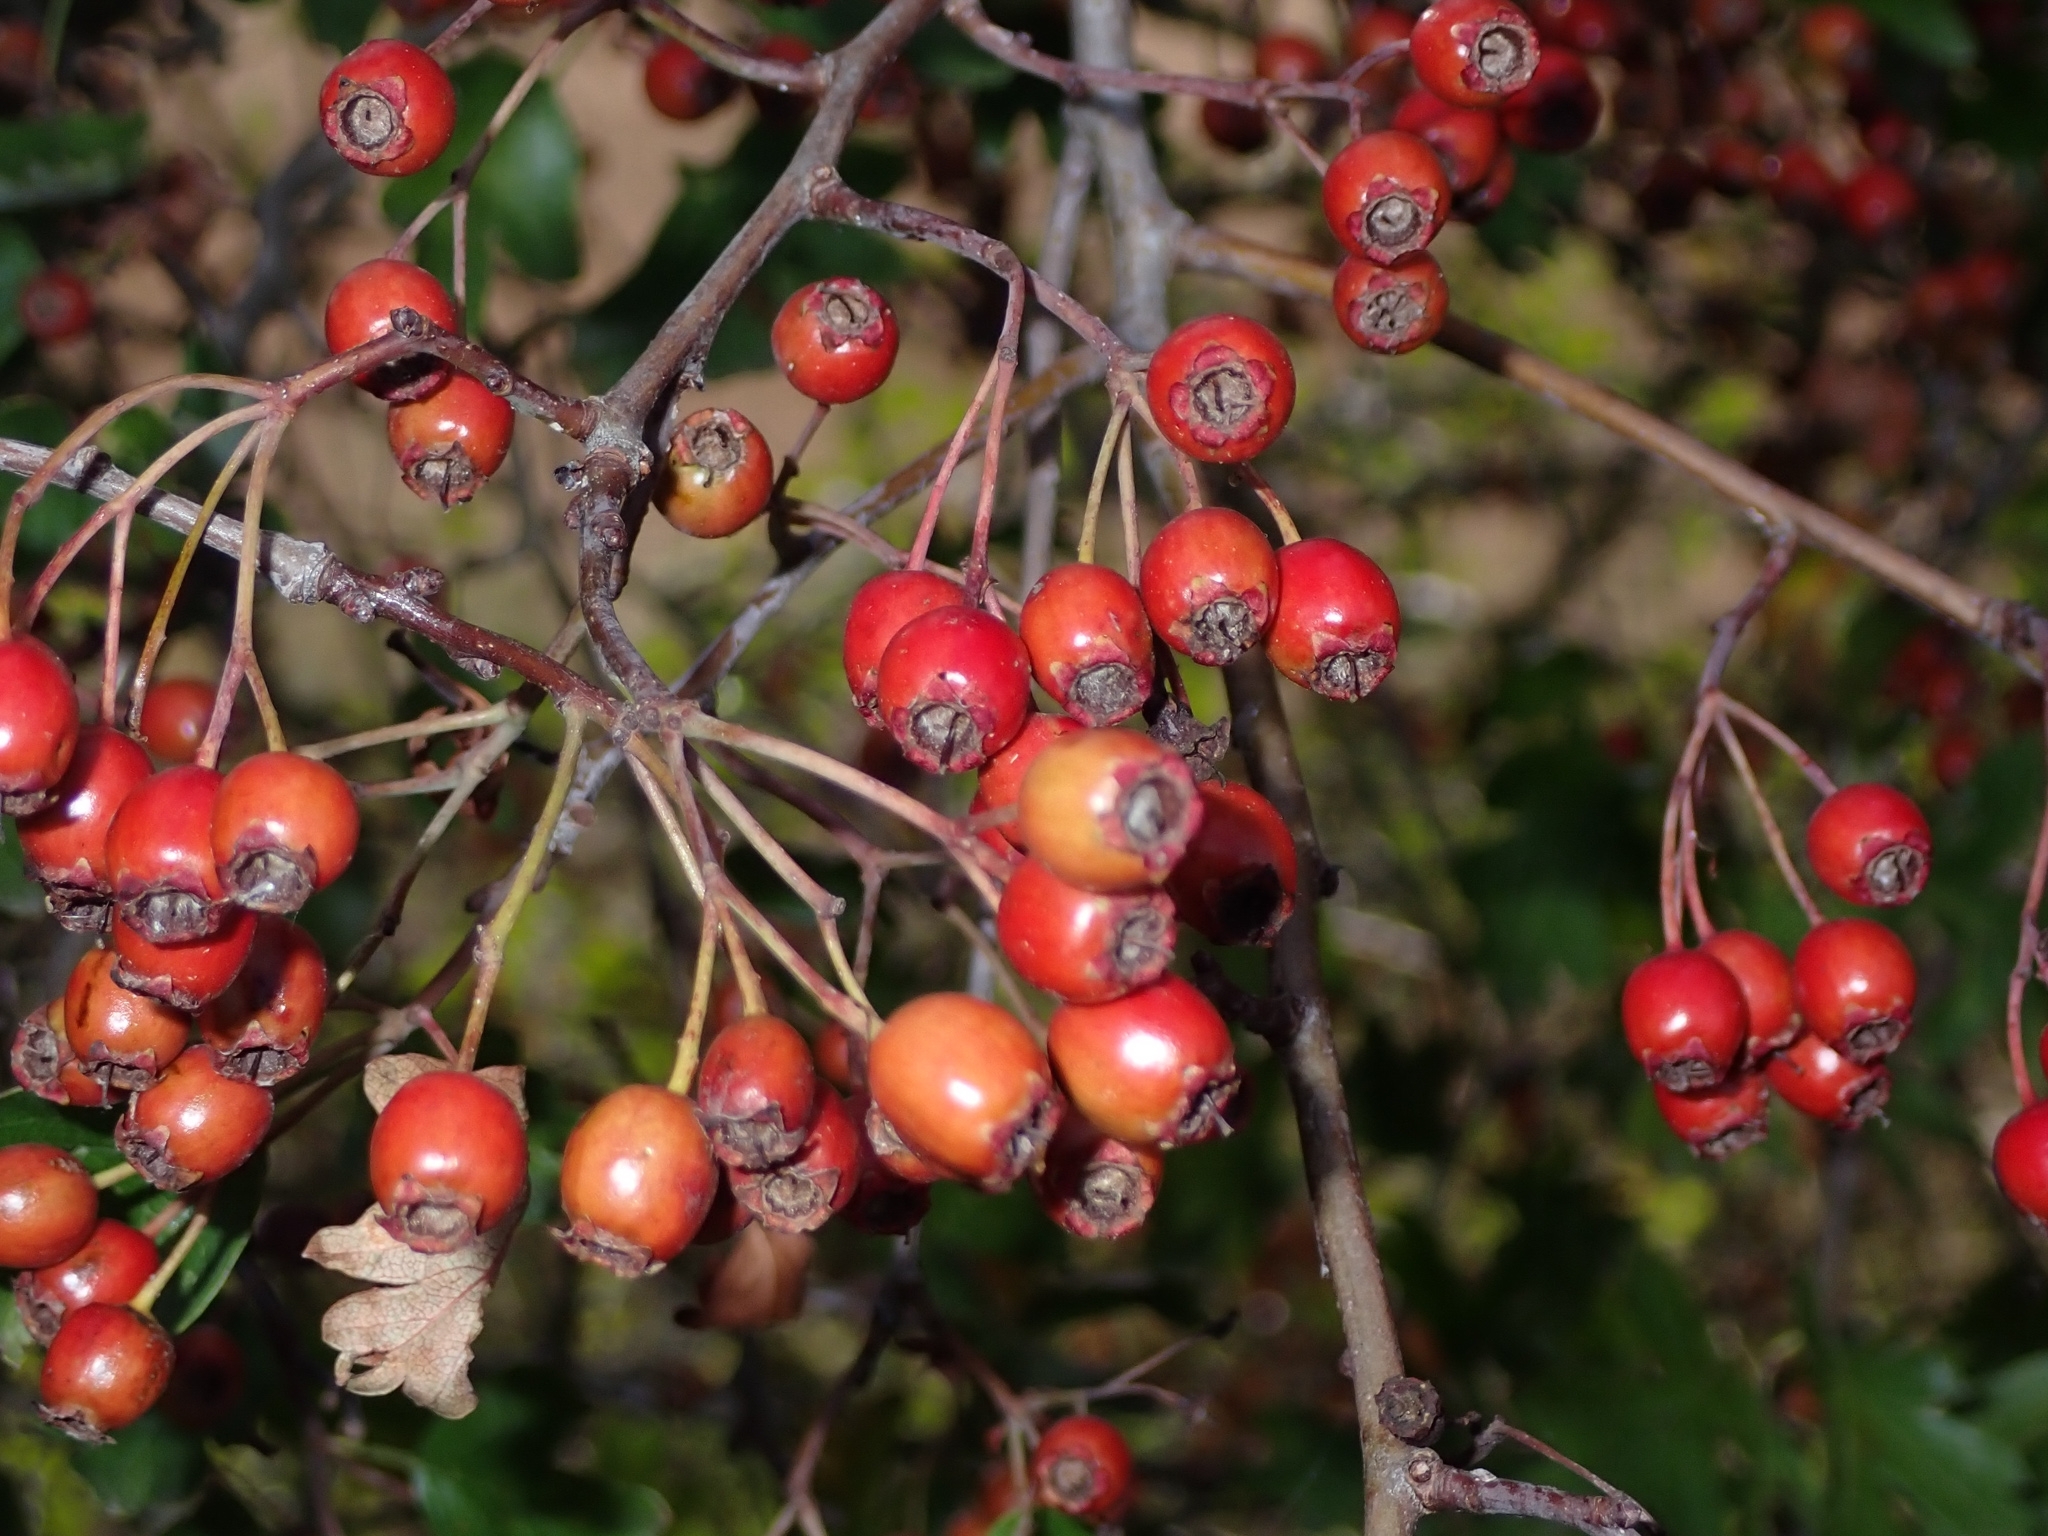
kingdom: Plantae
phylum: Tracheophyta
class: Magnoliopsida
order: Rosales
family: Rosaceae
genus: Crataegus
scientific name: Crataegus monogyna
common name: Hawthorn
